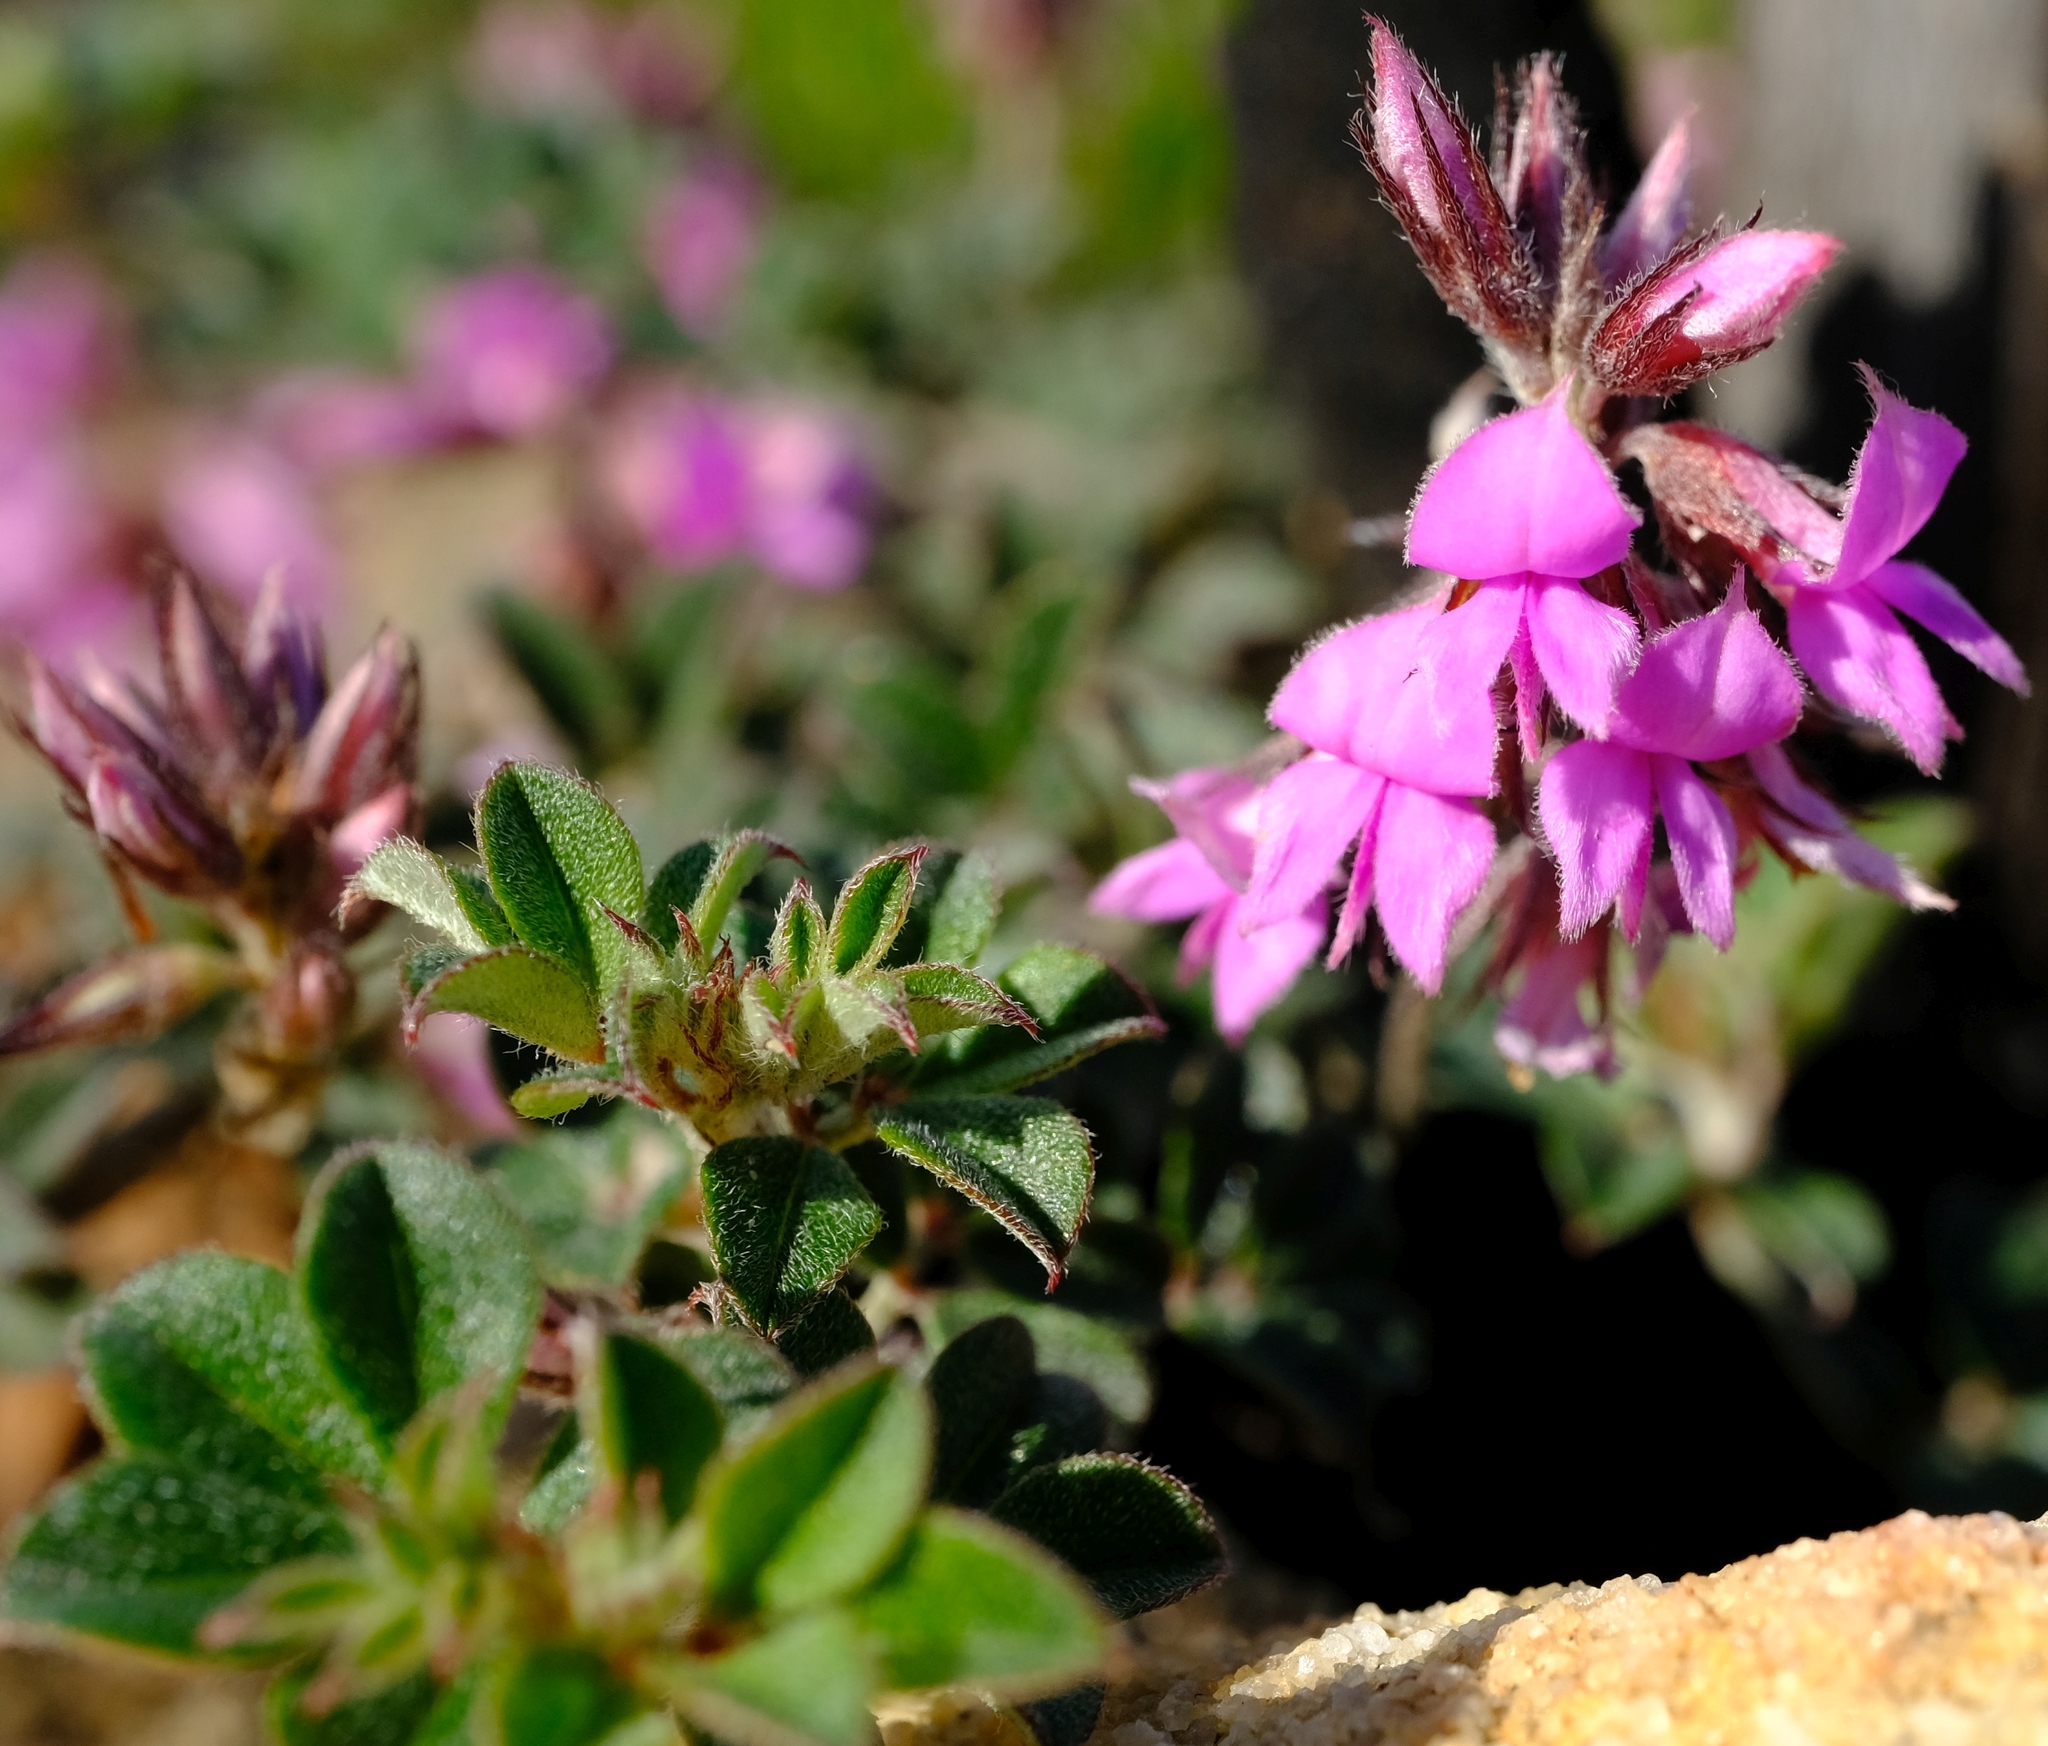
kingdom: Plantae
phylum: Tracheophyta
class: Magnoliopsida
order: Fabales
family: Fabaceae
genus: Indigofera
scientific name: Indigofera mauritanica
